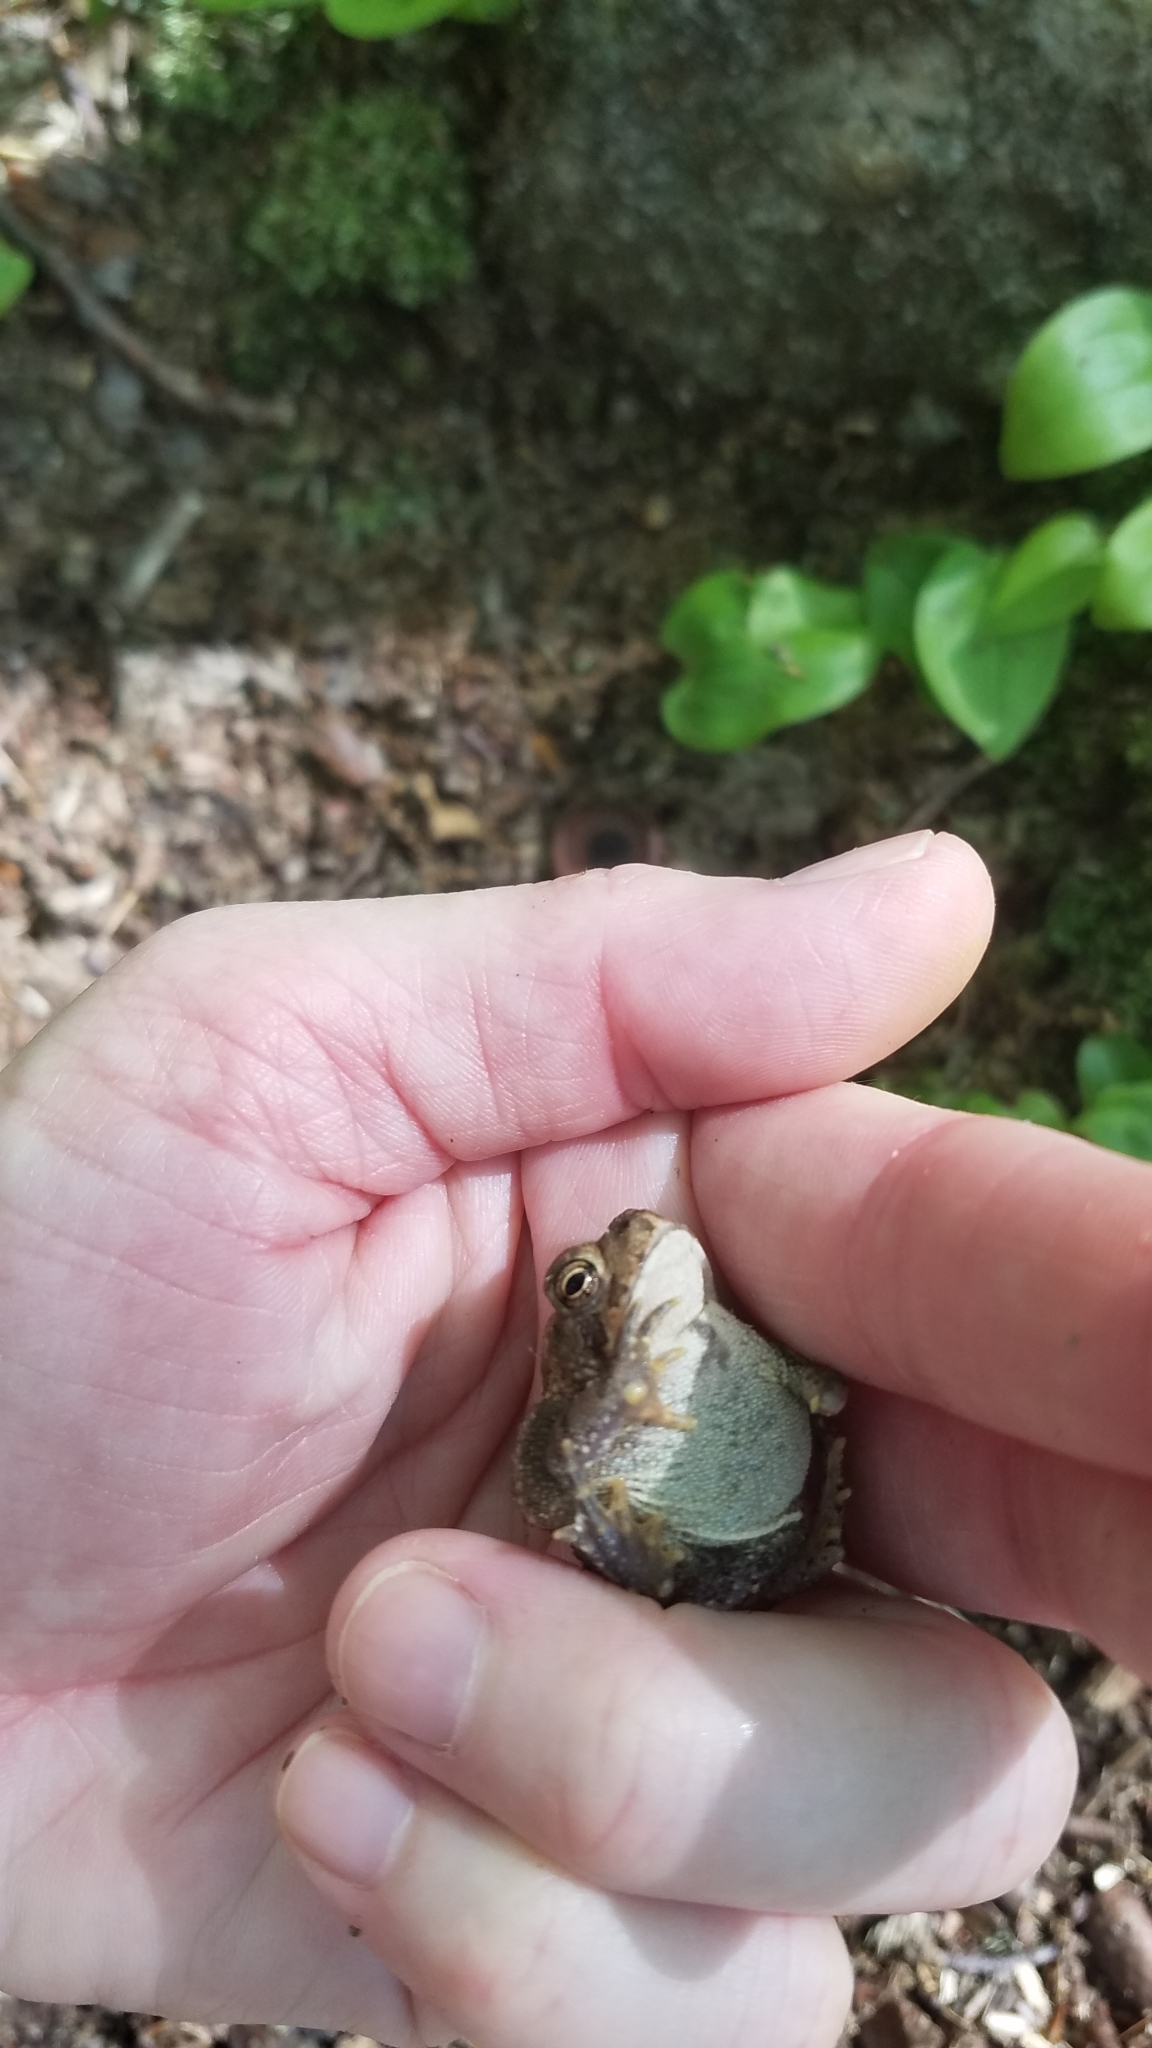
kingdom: Animalia
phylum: Chordata
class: Amphibia
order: Anura
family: Bufonidae
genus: Anaxyrus
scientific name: Anaxyrus americanus
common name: American toad
